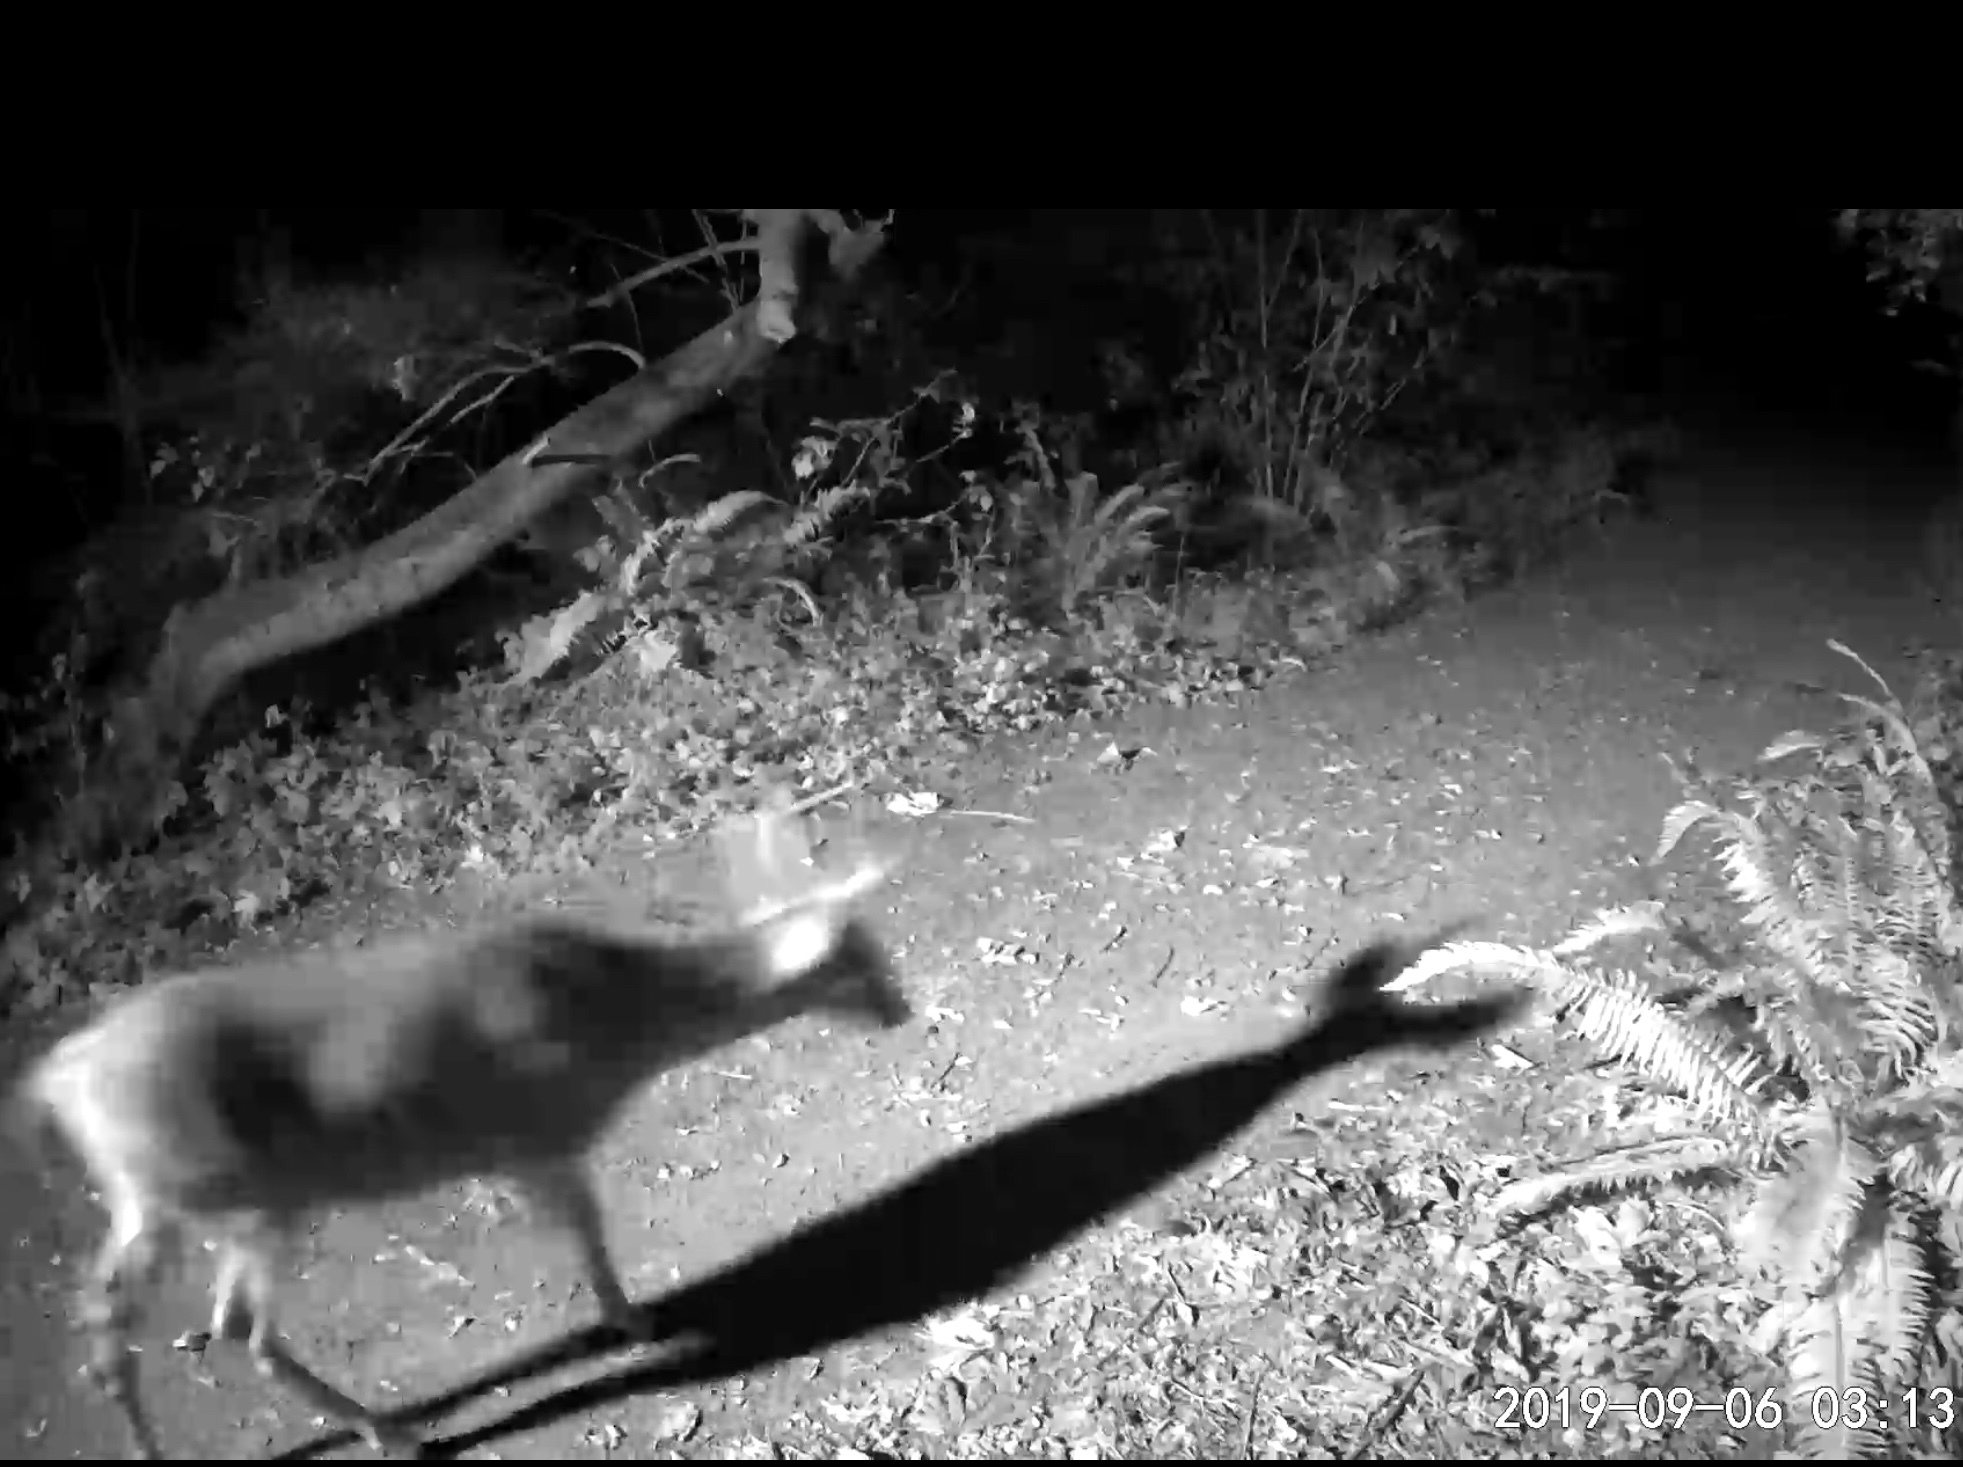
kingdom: Animalia
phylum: Chordata
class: Mammalia
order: Artiodactyla
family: Cervidae
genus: Odocoileus
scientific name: Odocoileus hemionus
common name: Mule deer
